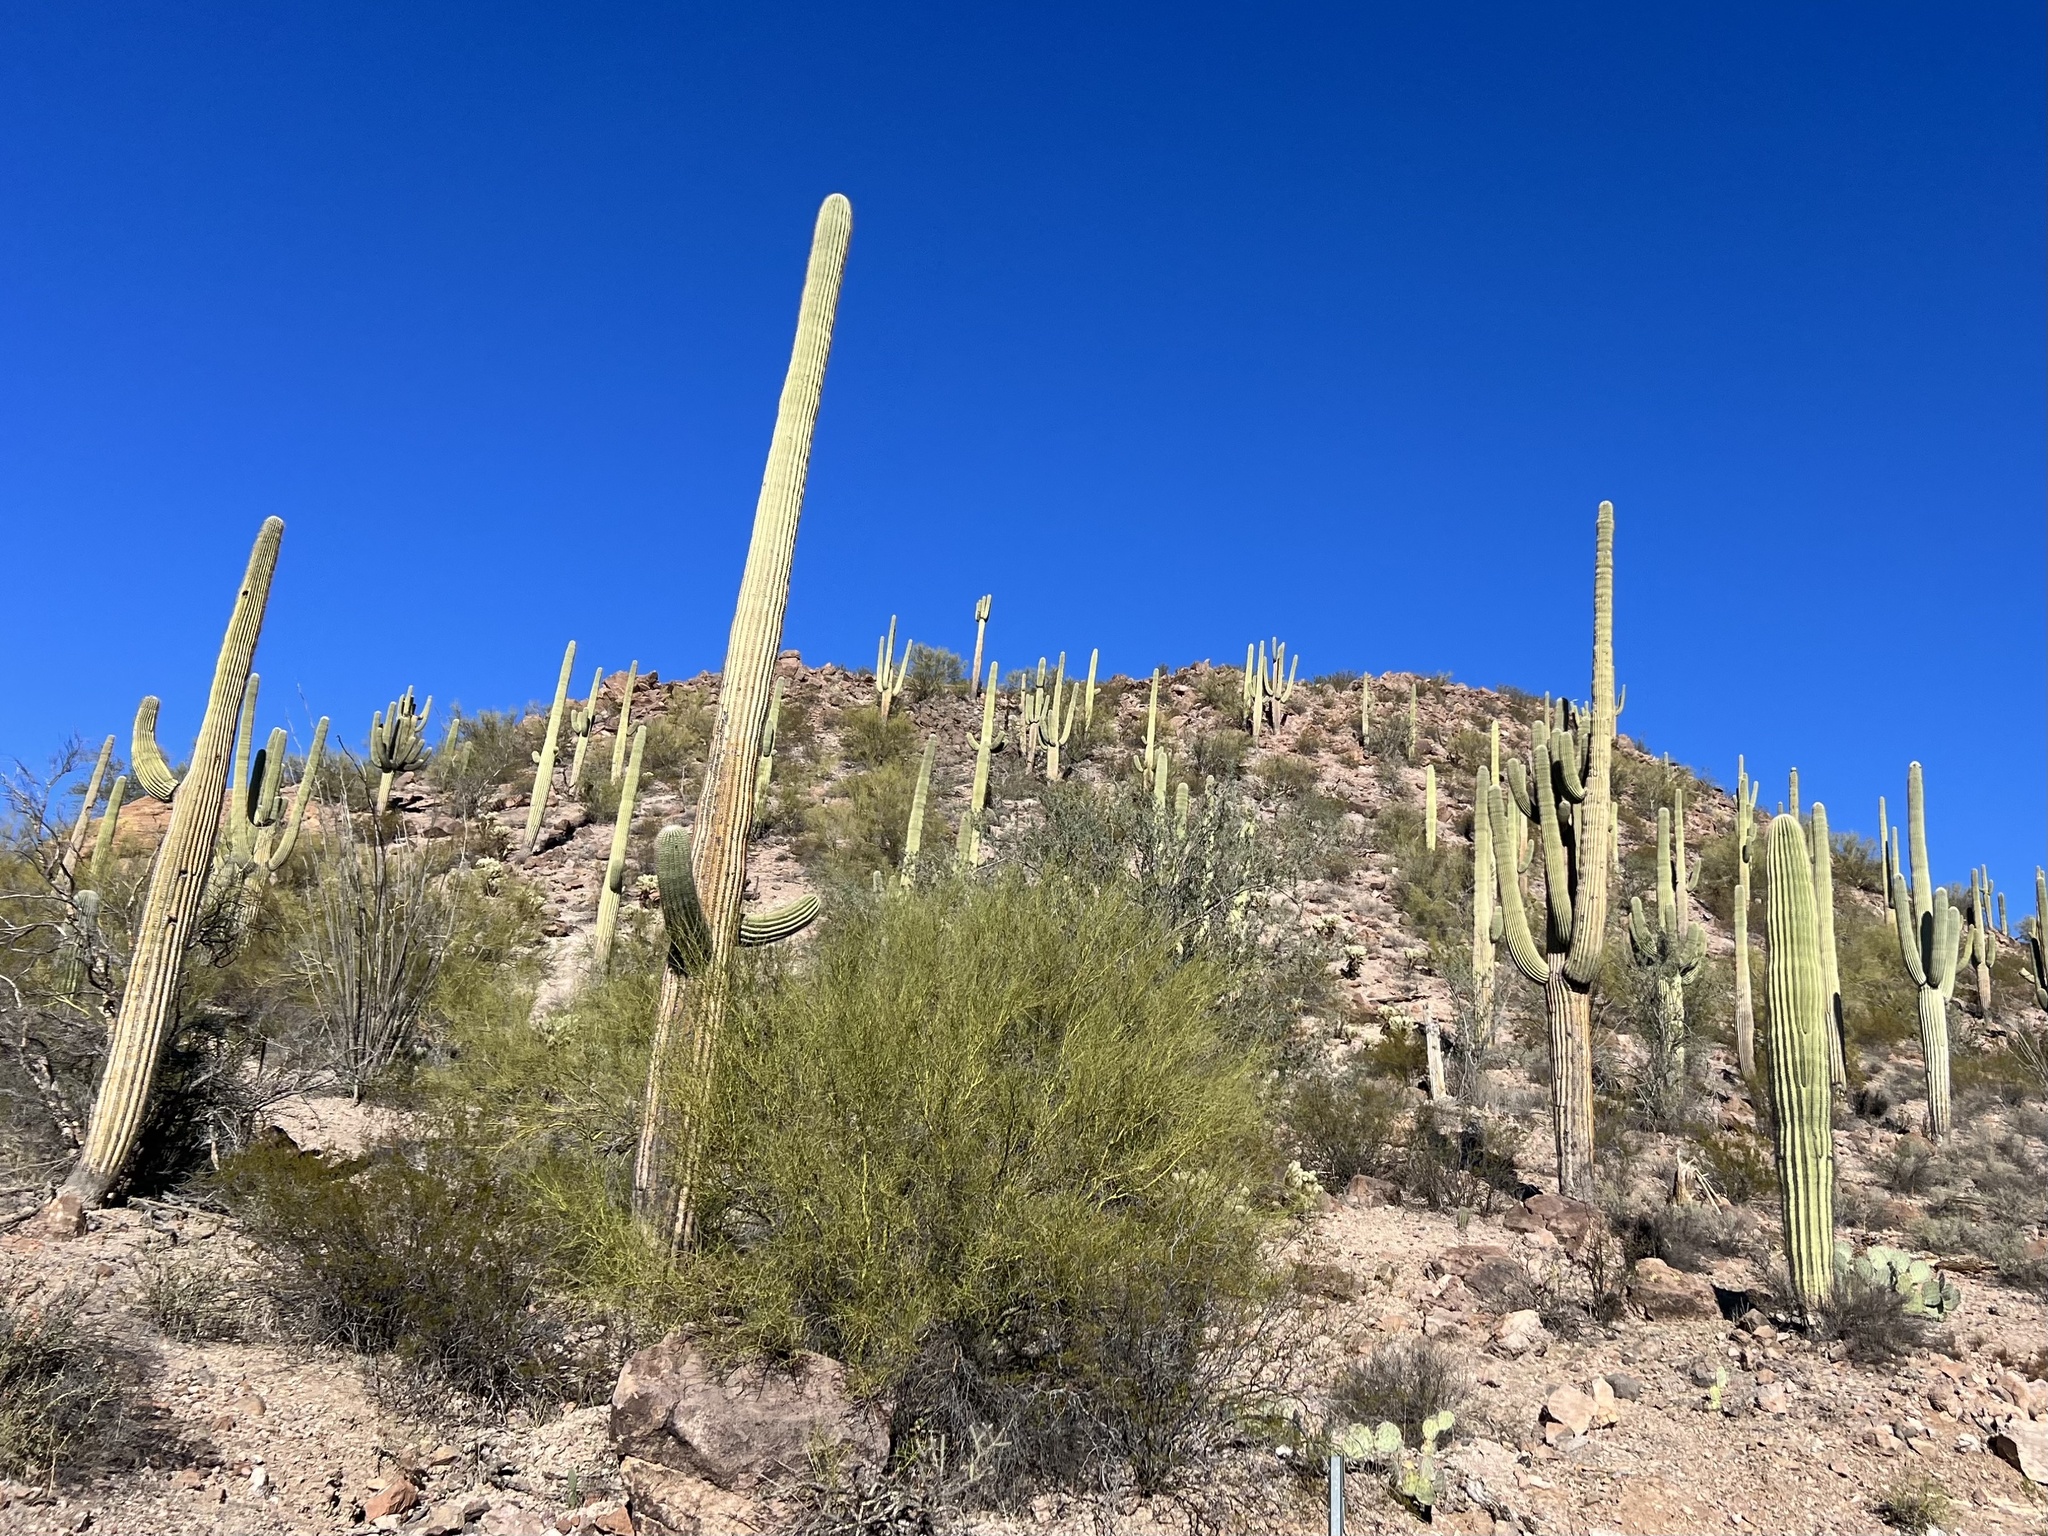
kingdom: Plantae
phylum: Tracheophyta
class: Magnoliopsida
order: Caryophyllales
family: Cactaceae
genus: Carnegiea
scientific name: Carnegiea gigantea
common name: Saguaro
